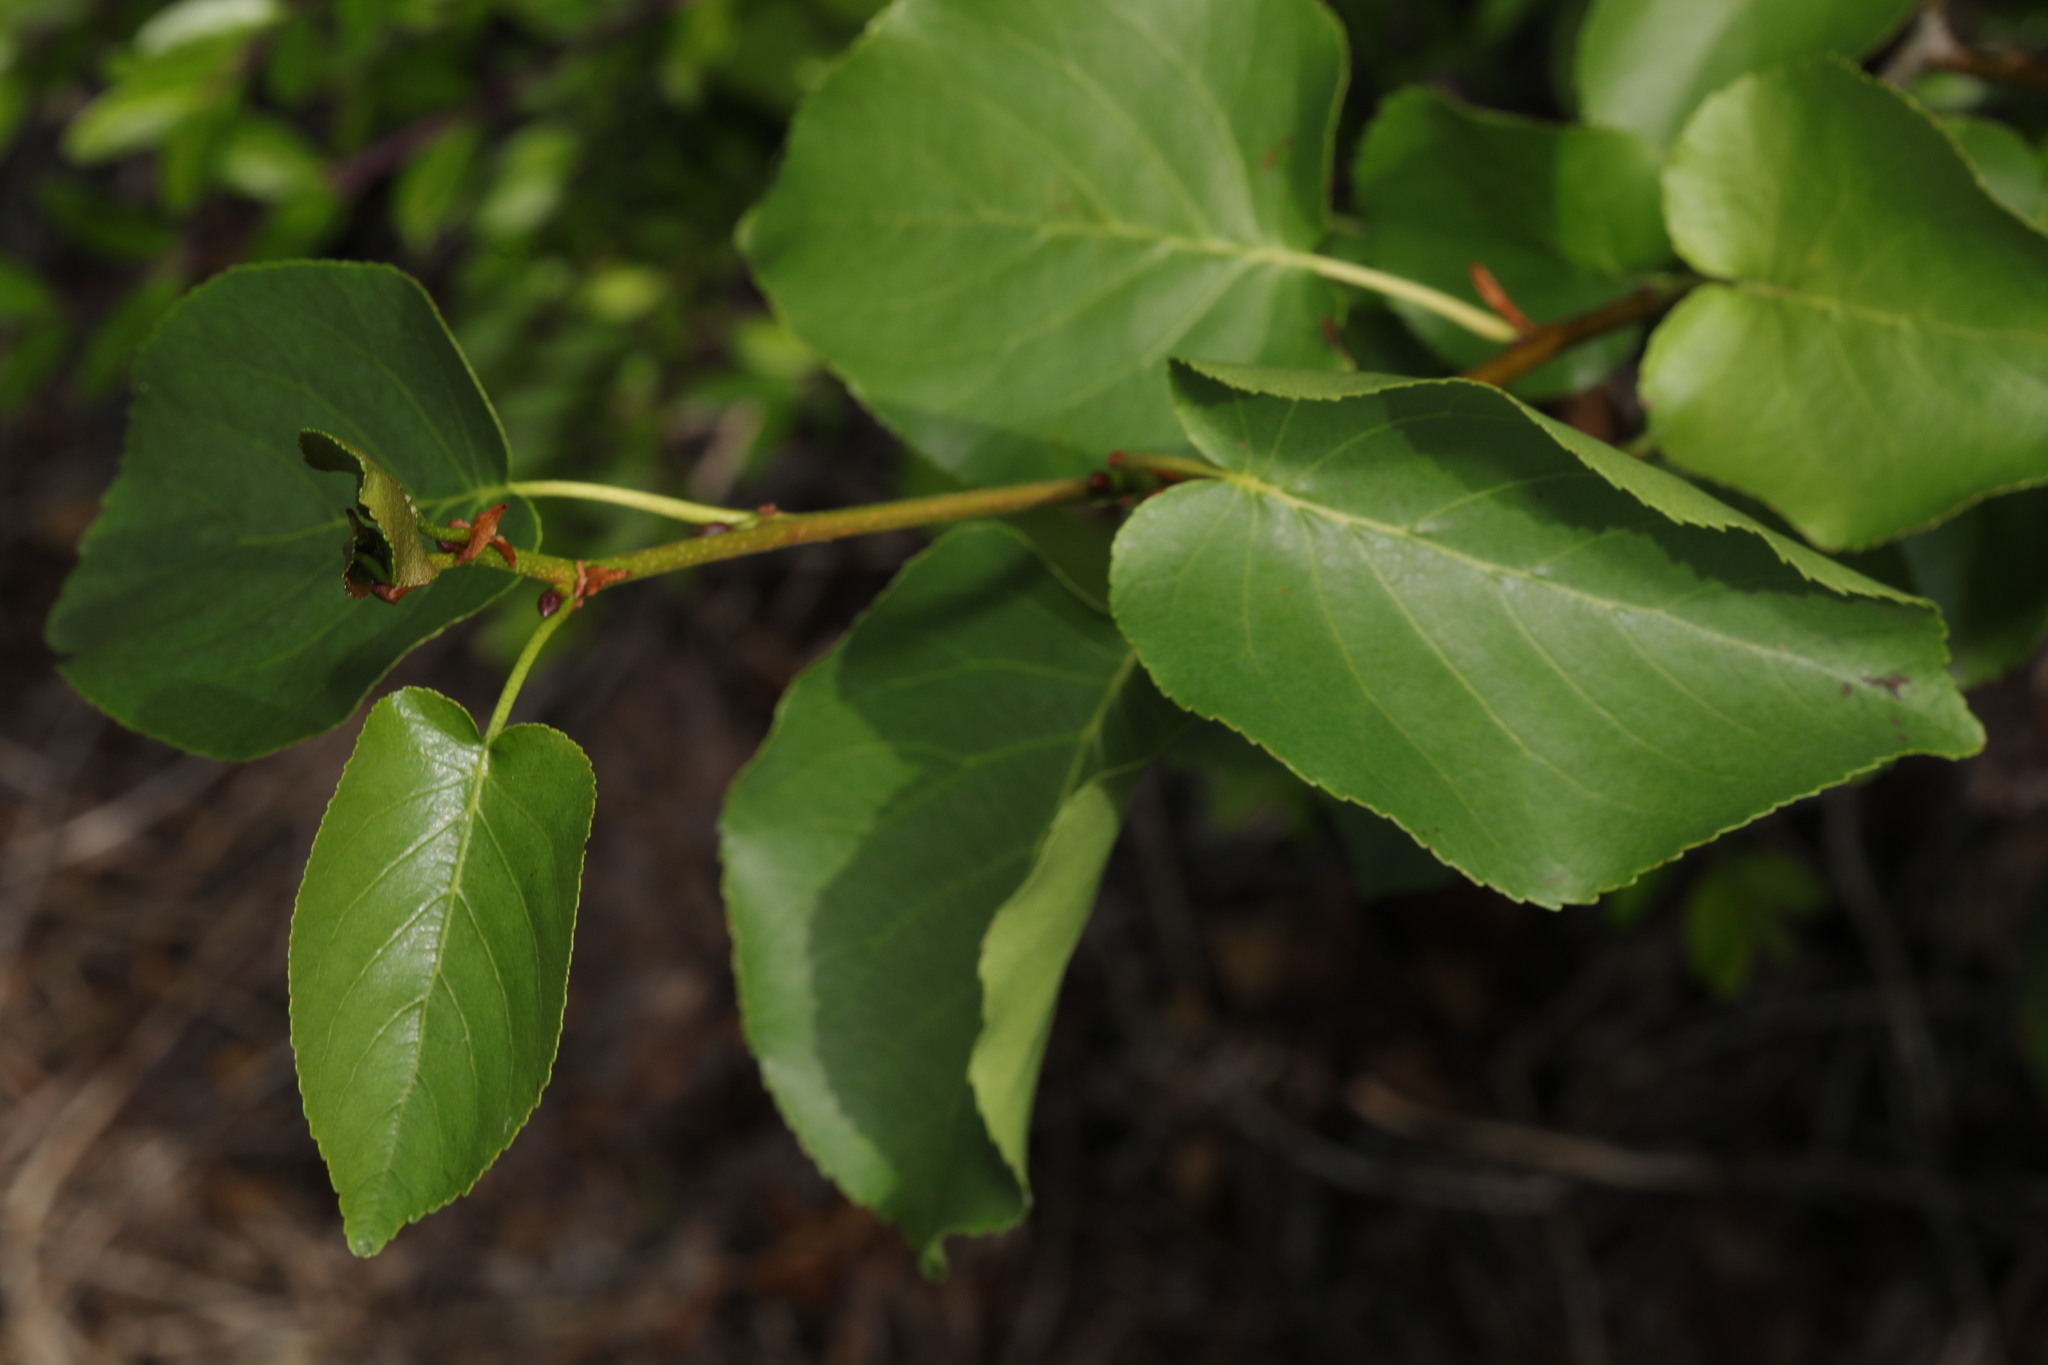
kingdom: Plantae
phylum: Tracheophyta
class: Magnoliopsida
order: Fagales
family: Betulaceae
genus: Alnus
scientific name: Alnus cordata
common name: Italian alder
